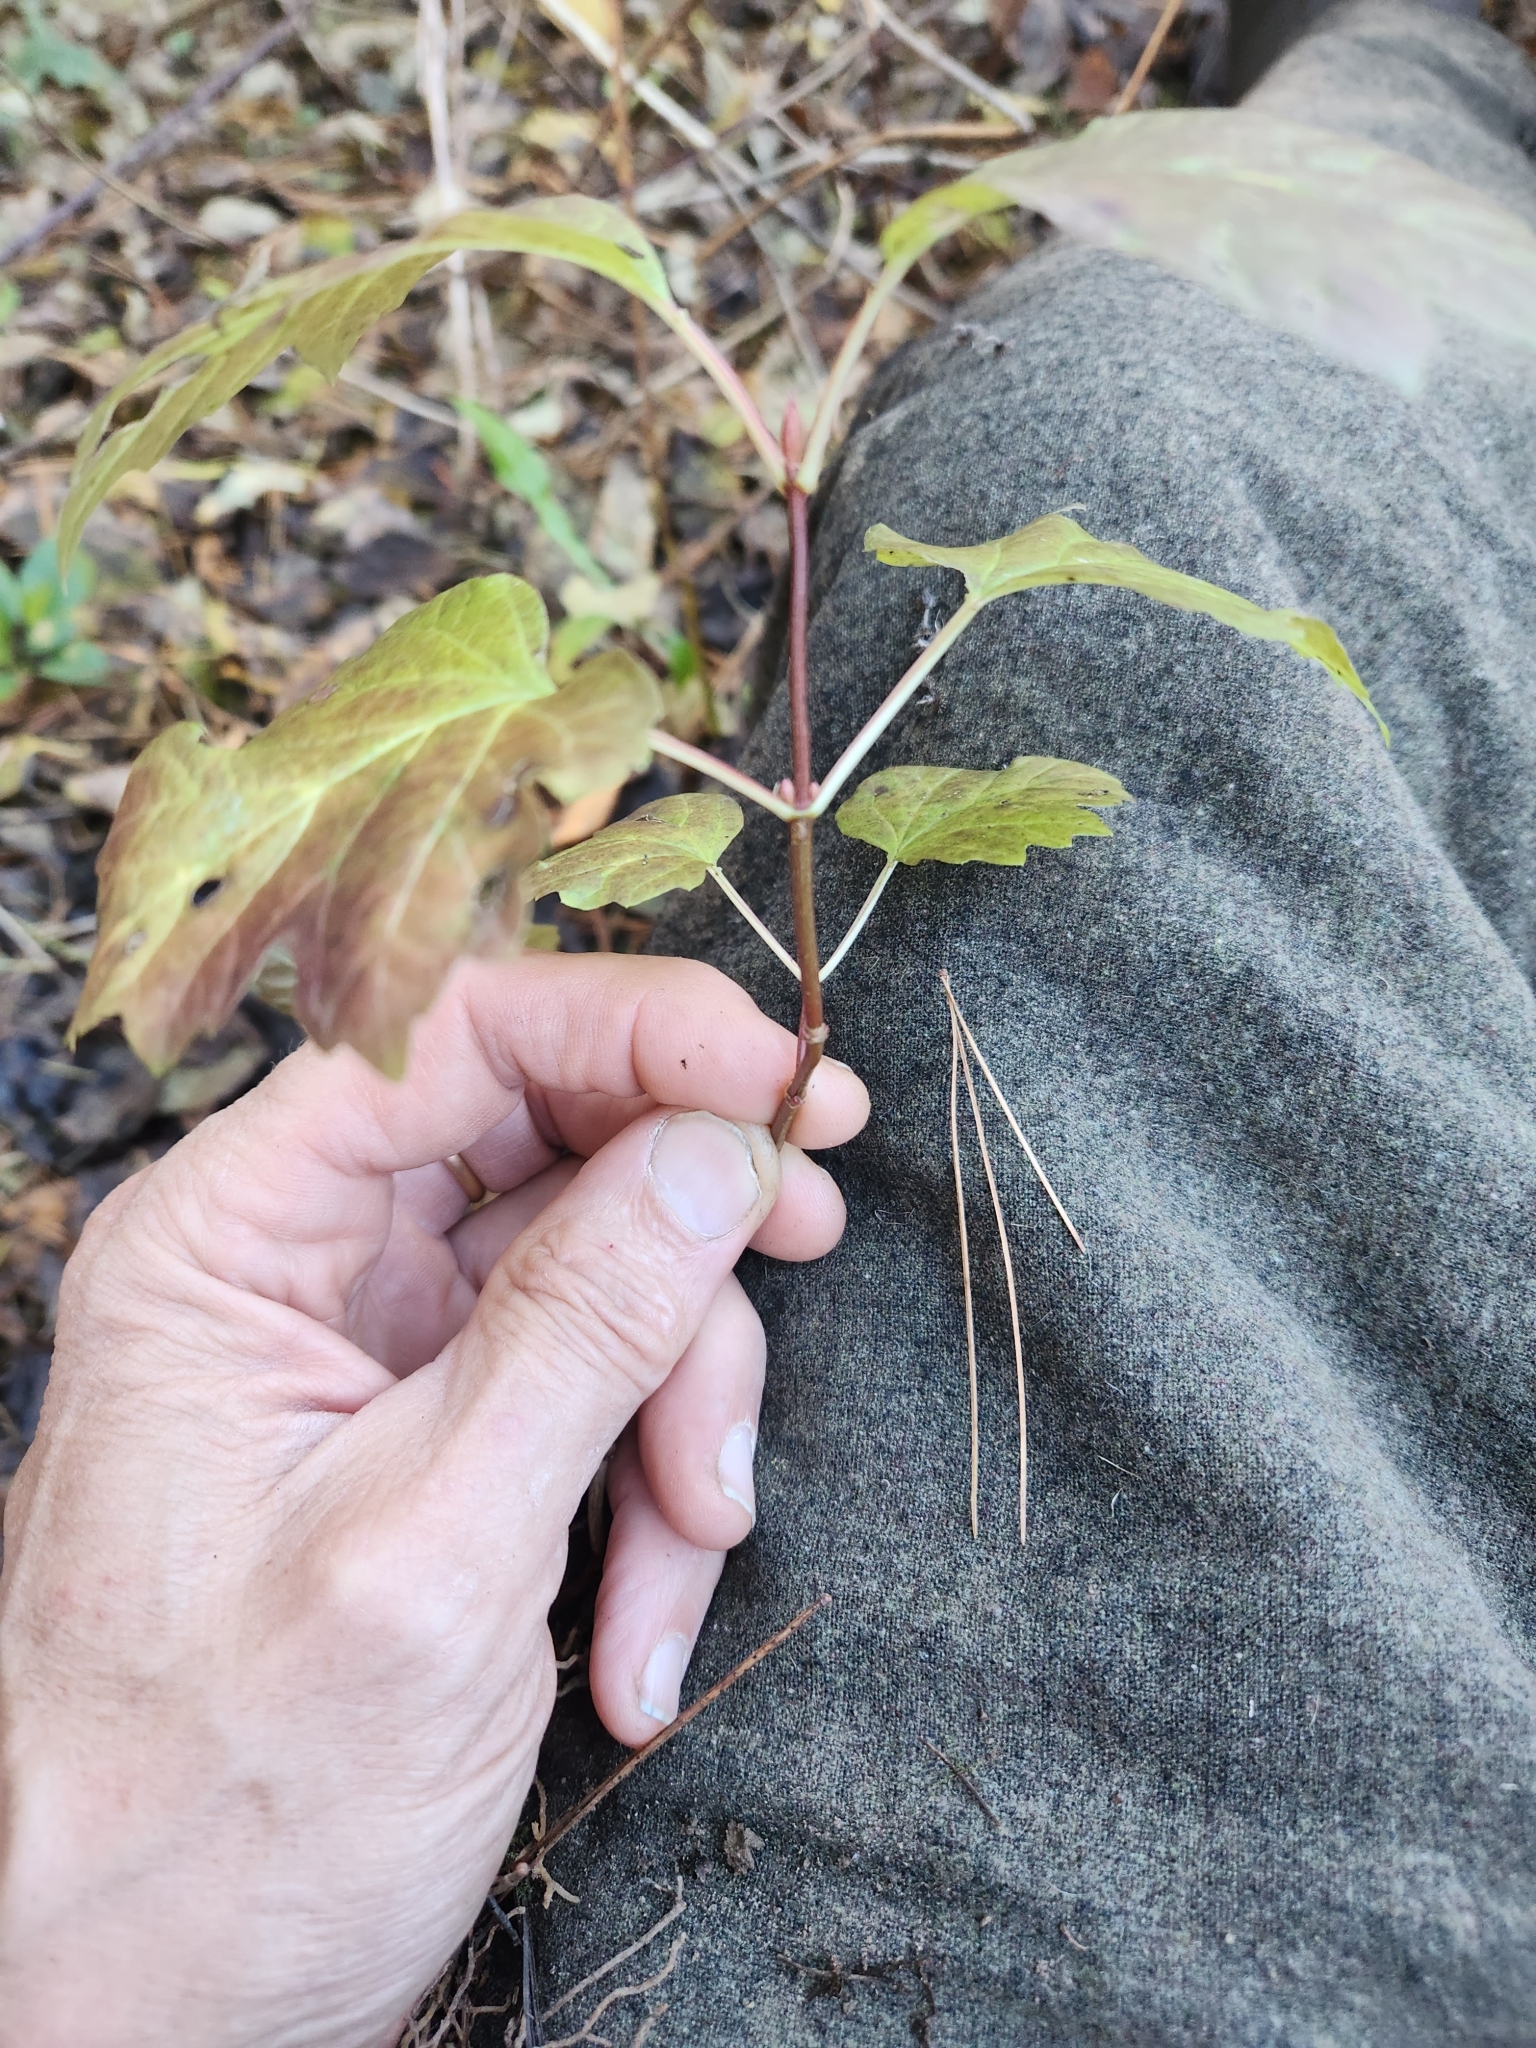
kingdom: Plantae
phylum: Tracheophyta
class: Magnoliopsida
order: Dipsacales
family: Viburnaceae
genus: Viburnum
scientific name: Viburnum acerifolium
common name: Dockmackie
